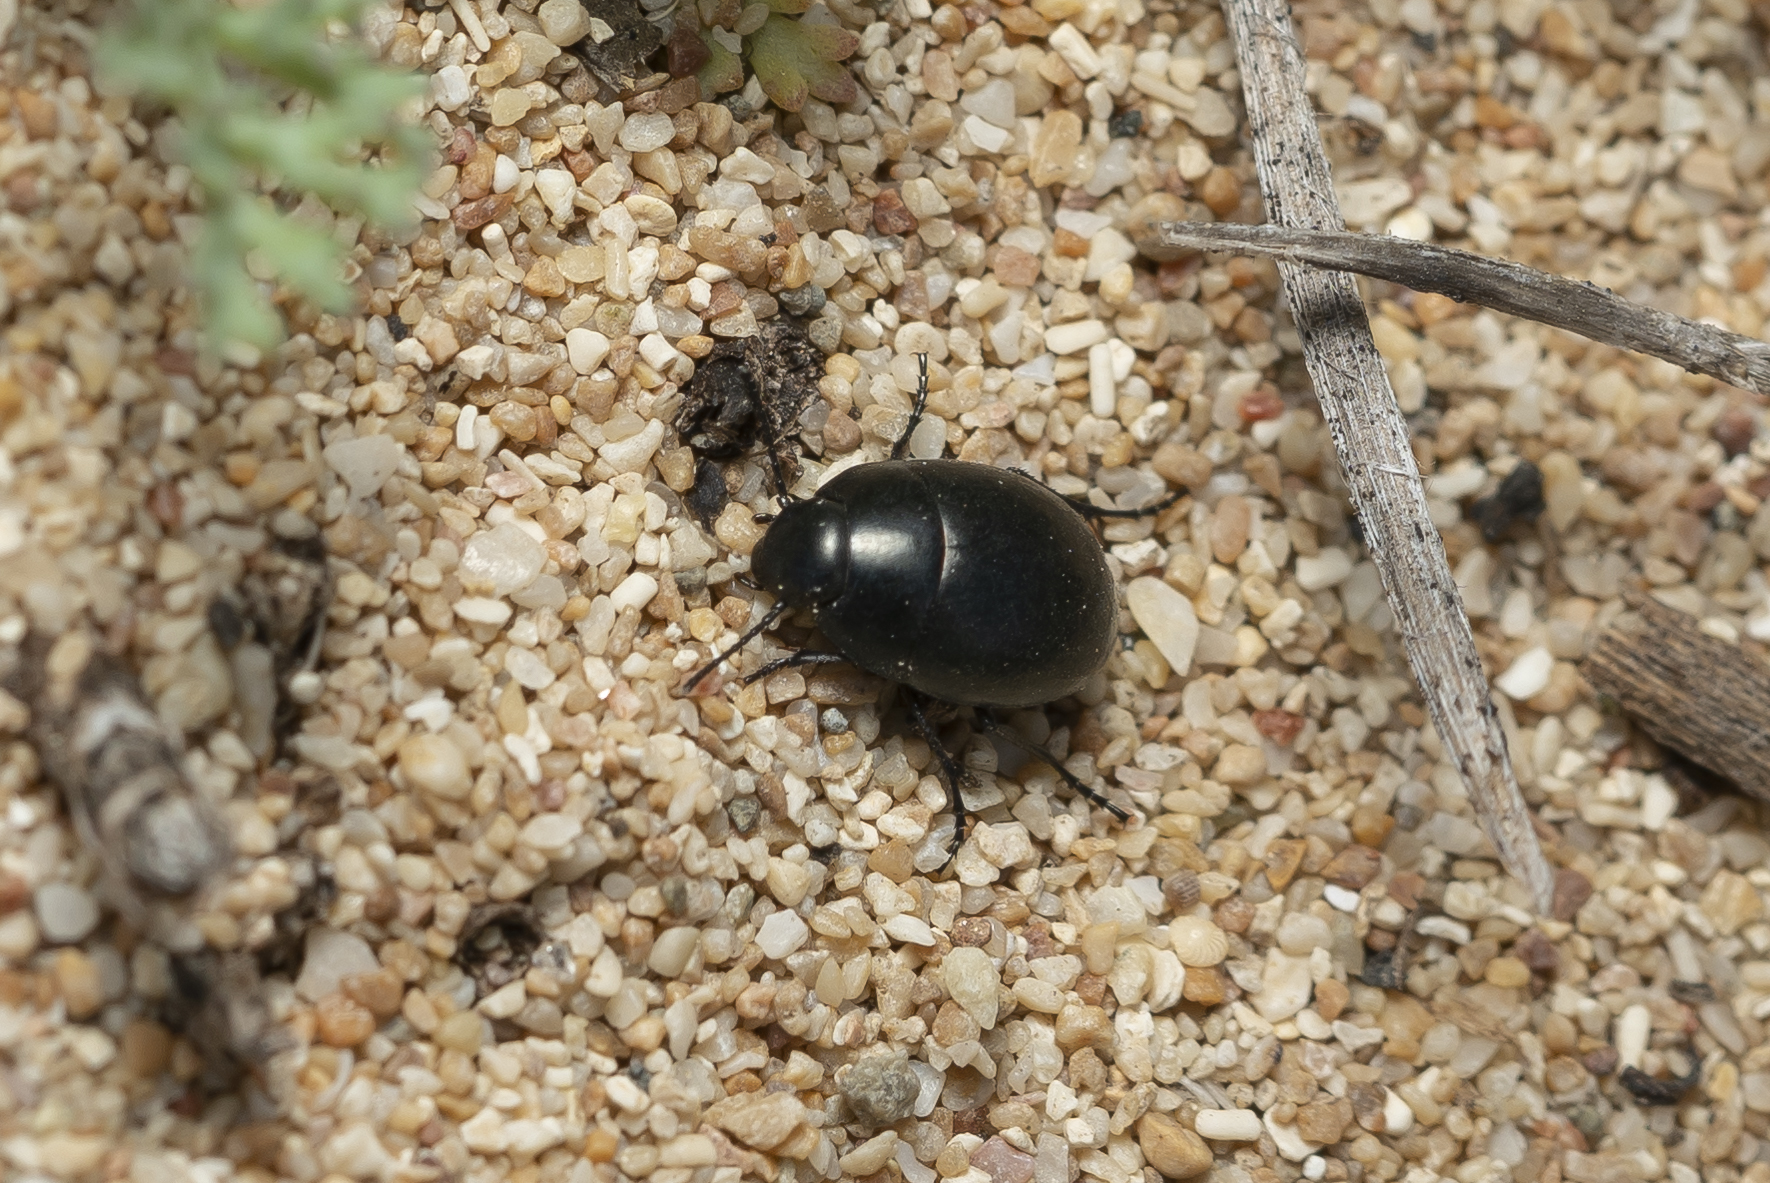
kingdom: Animalia
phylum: Arthropoda
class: Insecta
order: Coleoptera
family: Tenebrionidae
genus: Zophosis
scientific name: Zophosis dilatata
